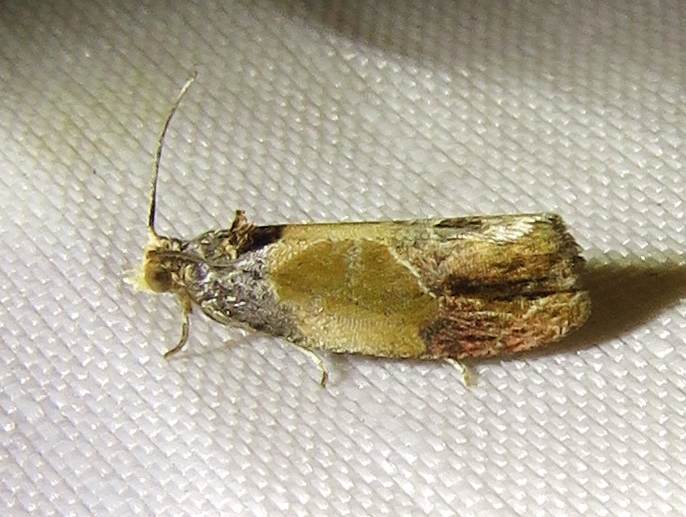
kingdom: Animalia
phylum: Arthropoda
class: Insecta
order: Lepidoptera
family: Tortricidae
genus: Eumarozia
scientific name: Eumarozia malachitana
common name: Sculptured moth
